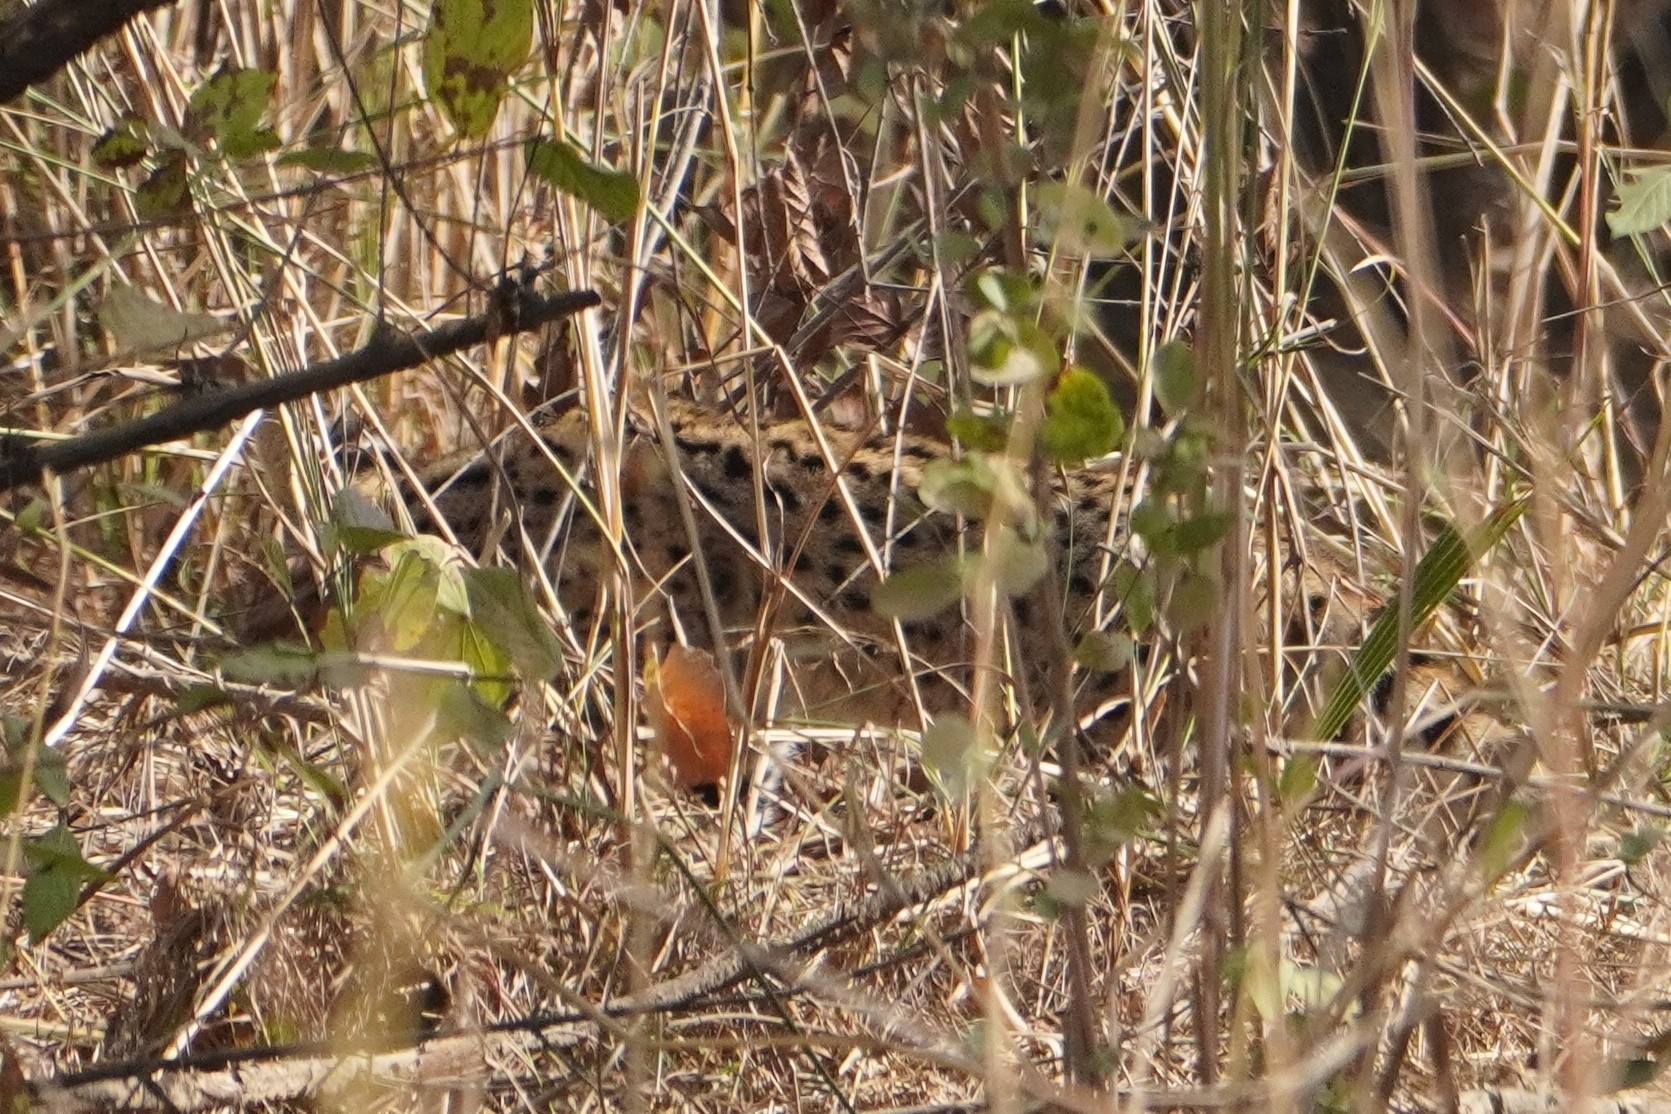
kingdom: Animalia
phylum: Chordata
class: Mammalia
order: Carnivora
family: Felidae
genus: Leptailurus
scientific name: Leptailurus serval
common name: Serval
